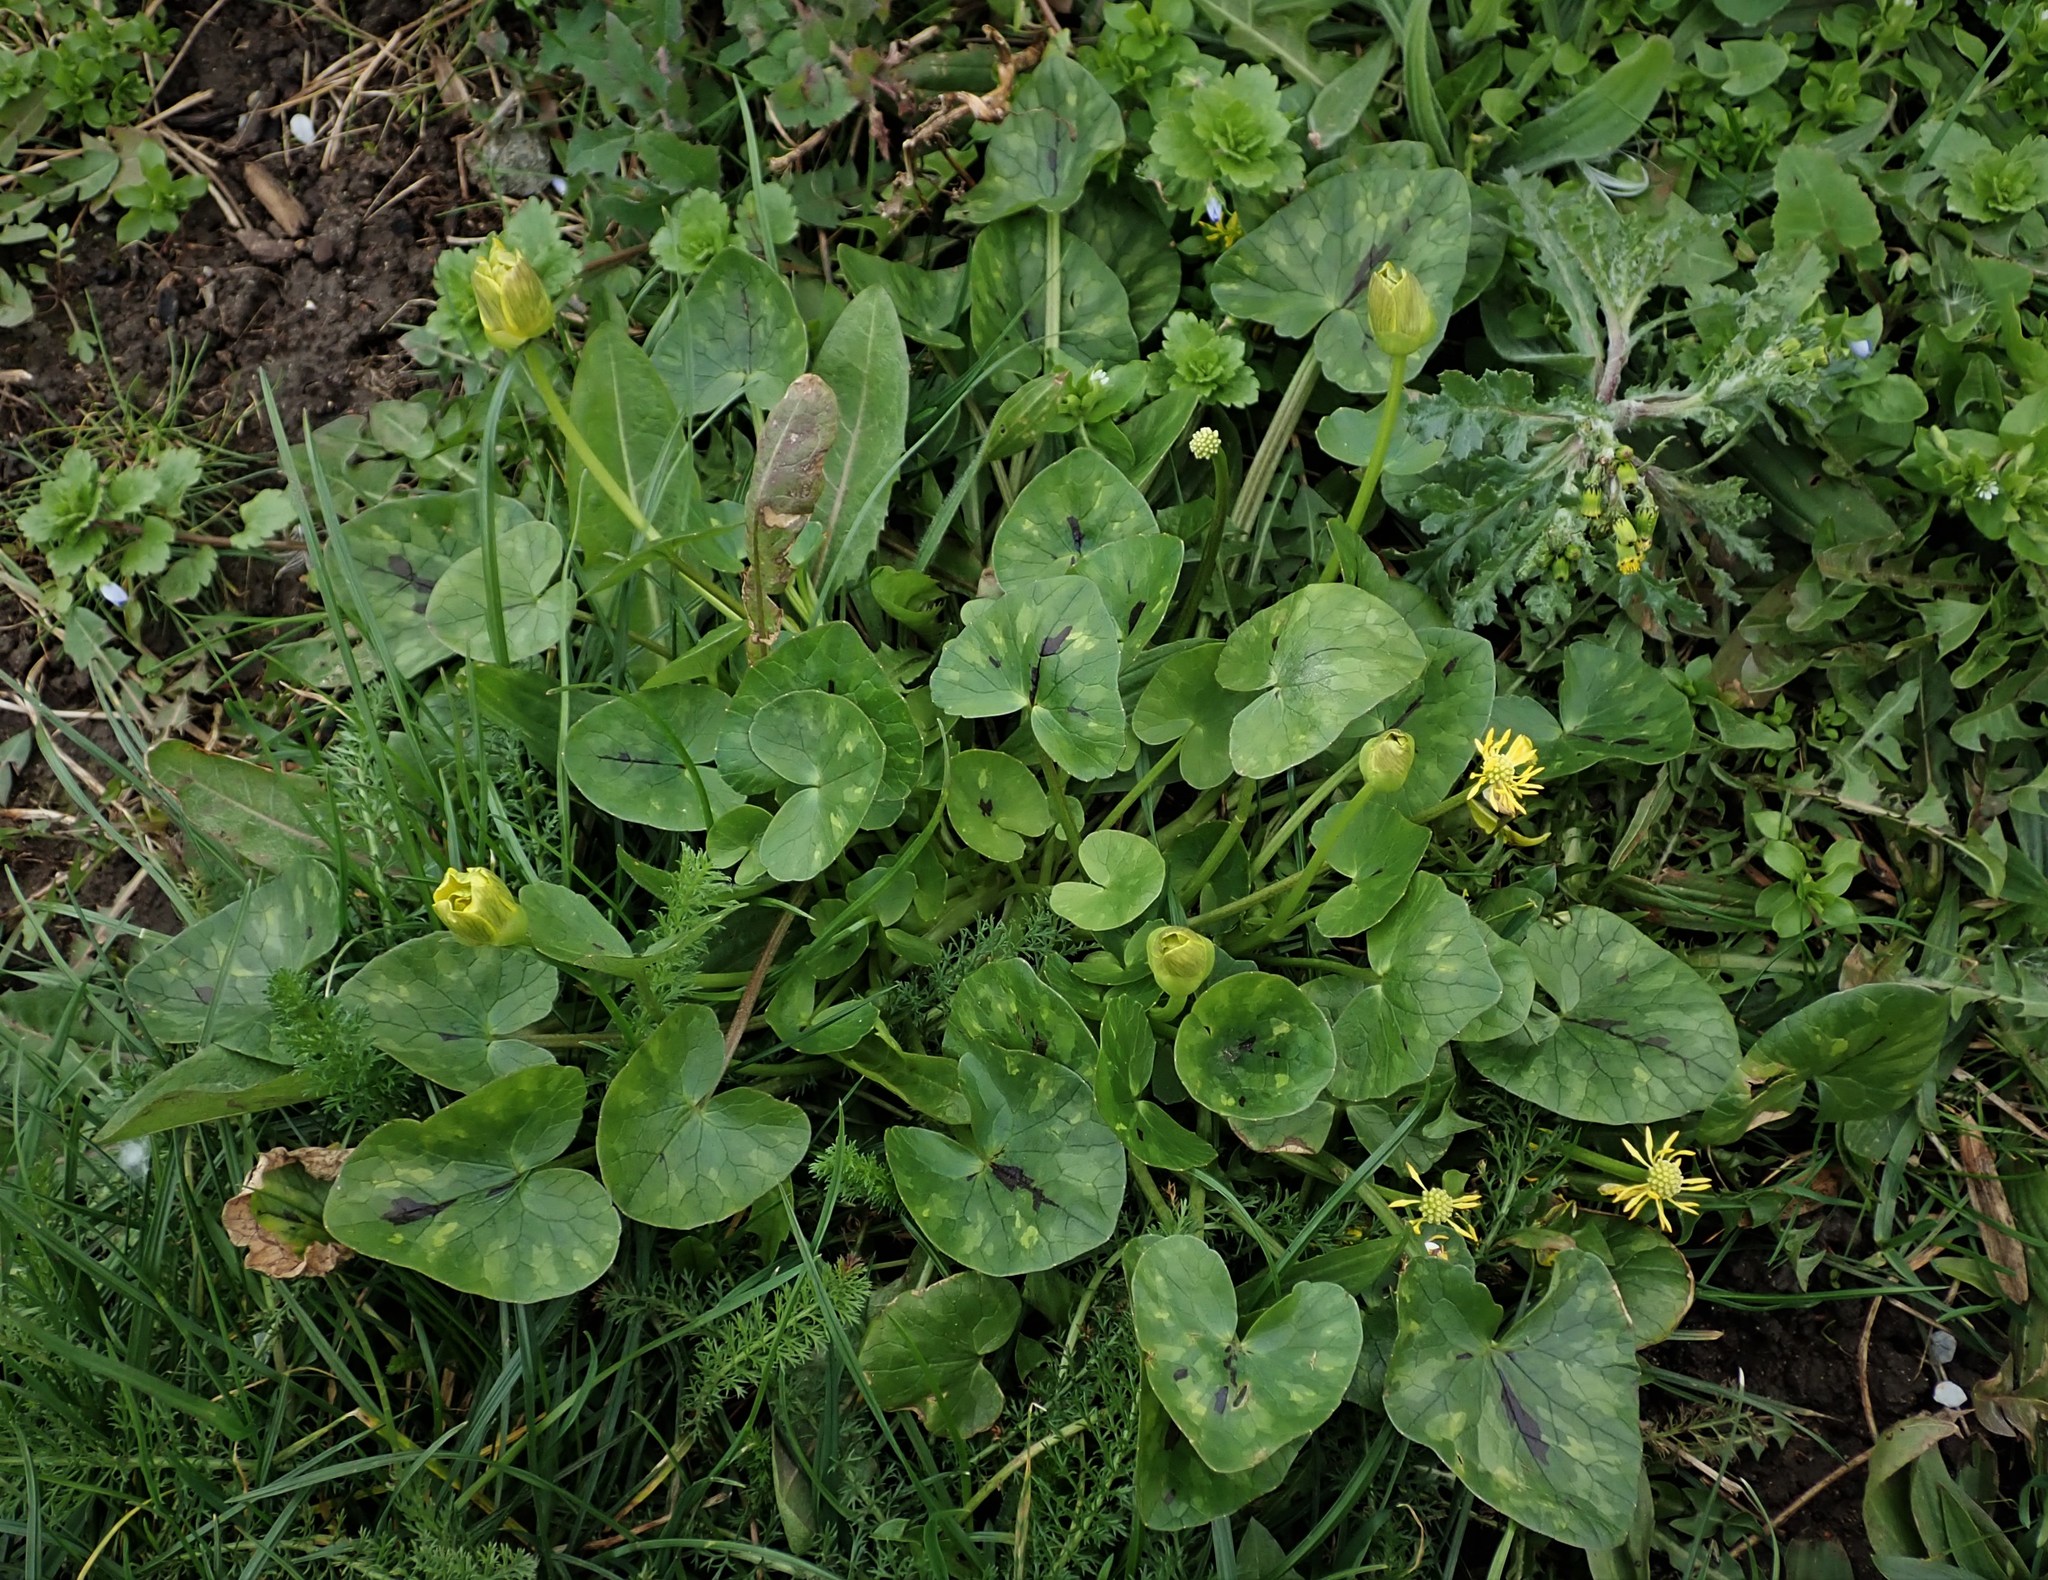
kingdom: Plantae
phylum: Tracheophyta
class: Magnoliopsida
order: Ranunculales
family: Ranunculaceae
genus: Ficaria
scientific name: Ficaria ambigua
